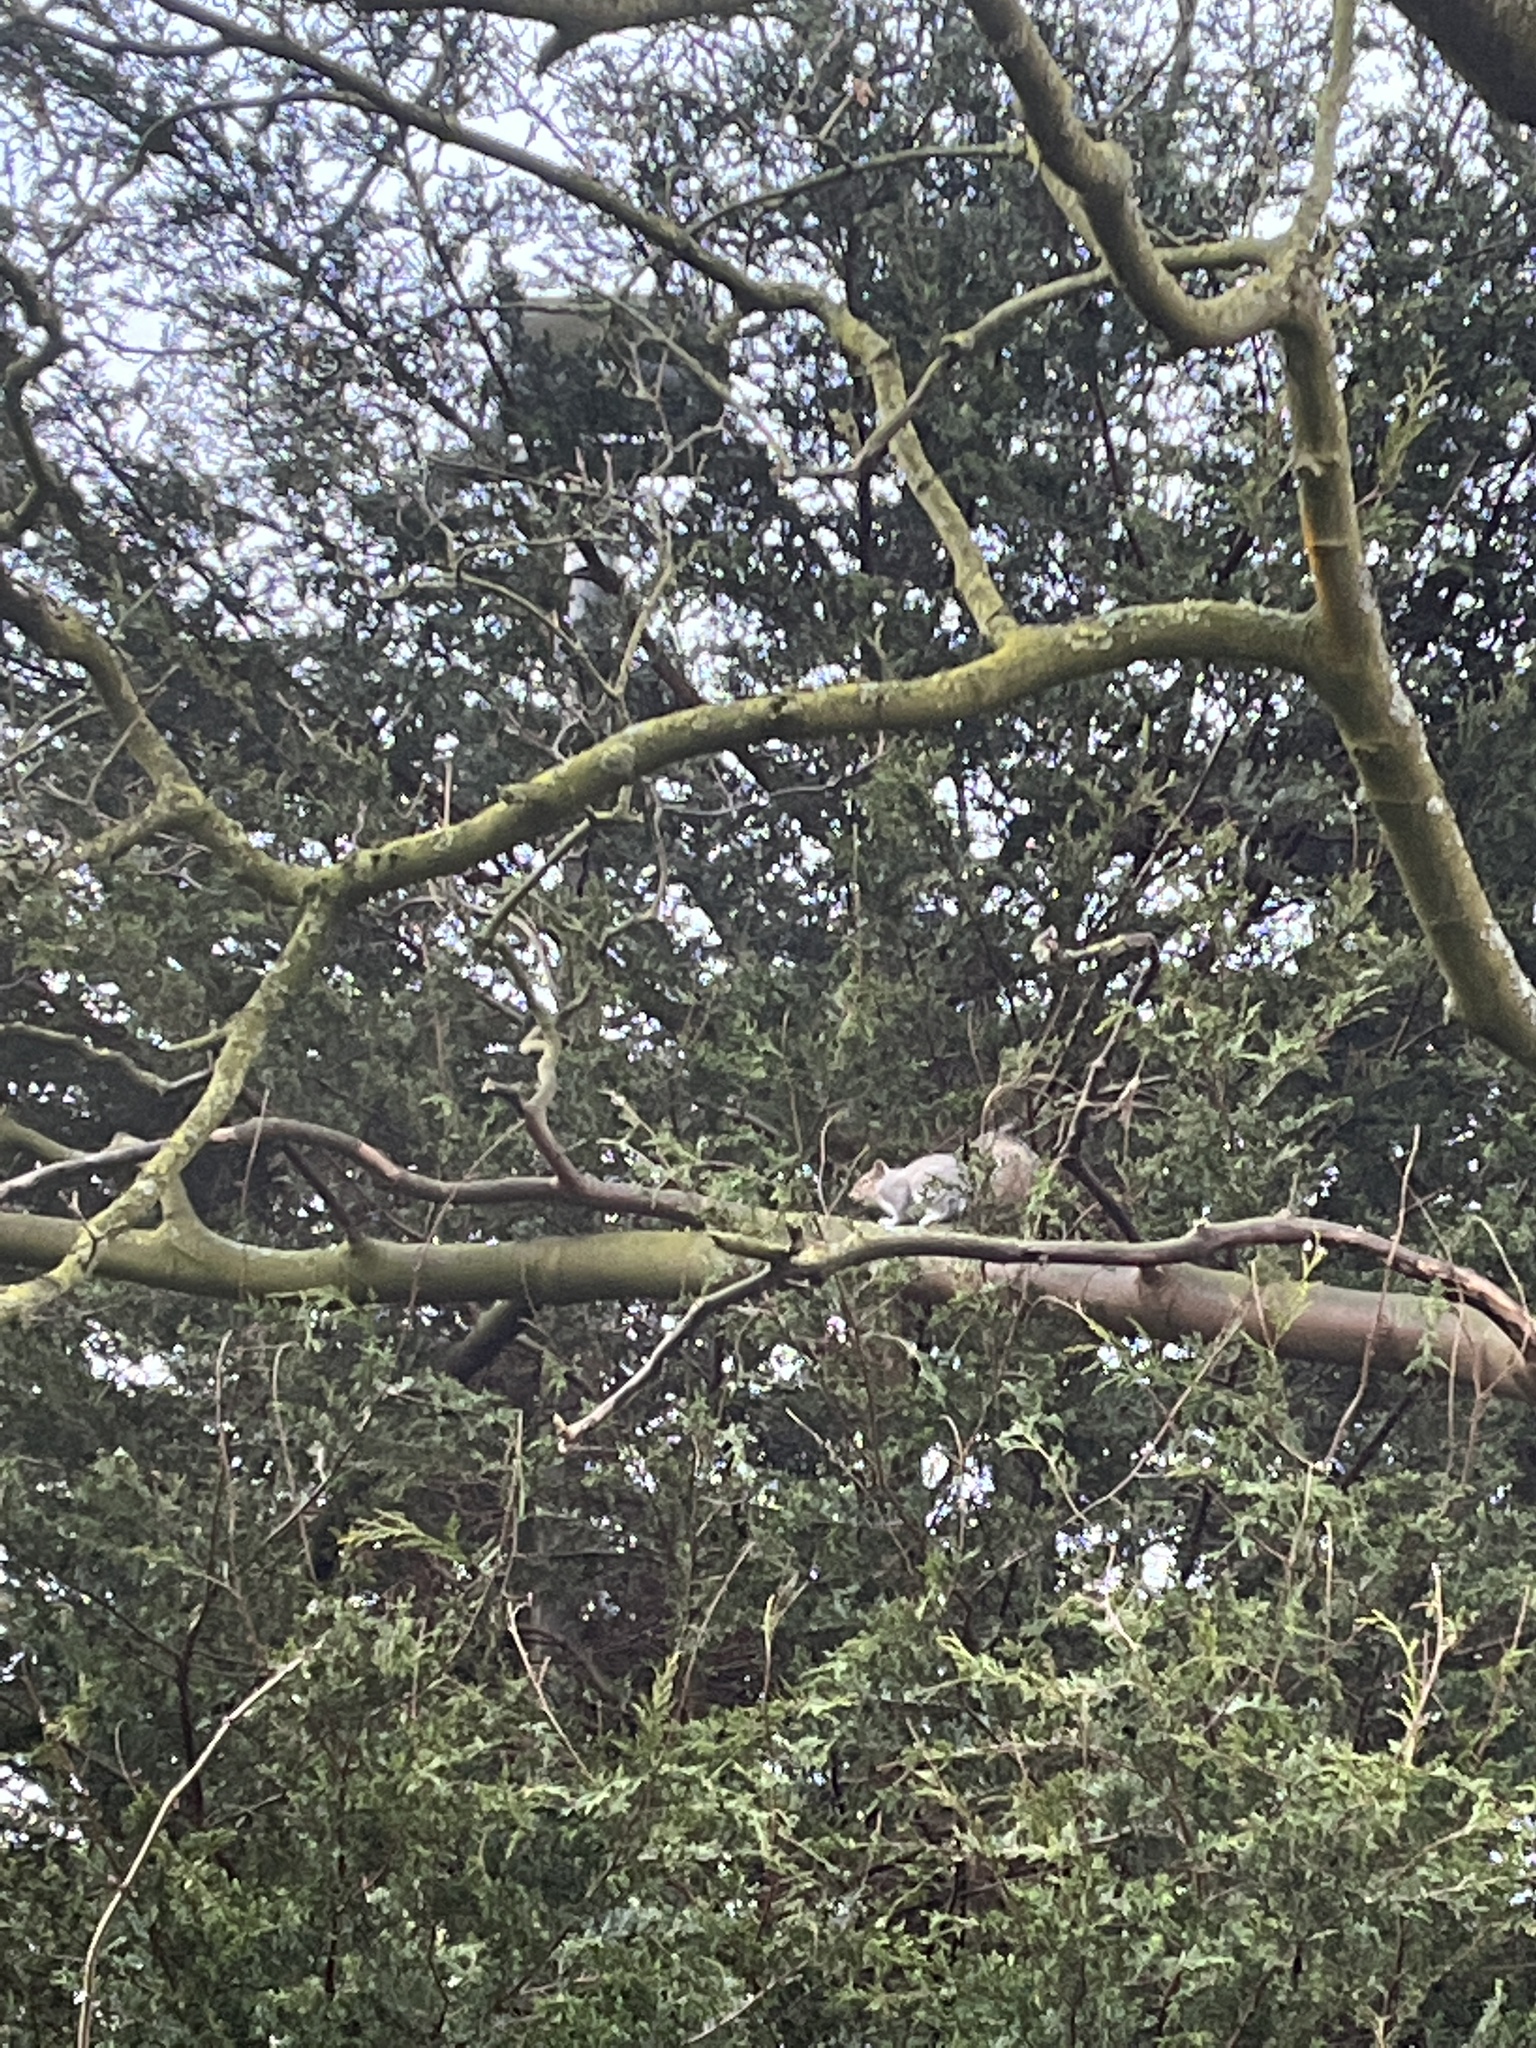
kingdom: Animalia
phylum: Chordata
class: Mammalia
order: Rodentia
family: Sciuridae
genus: Sciurus
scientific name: Sciurus carolinensis
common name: Eastern gray squirrel
